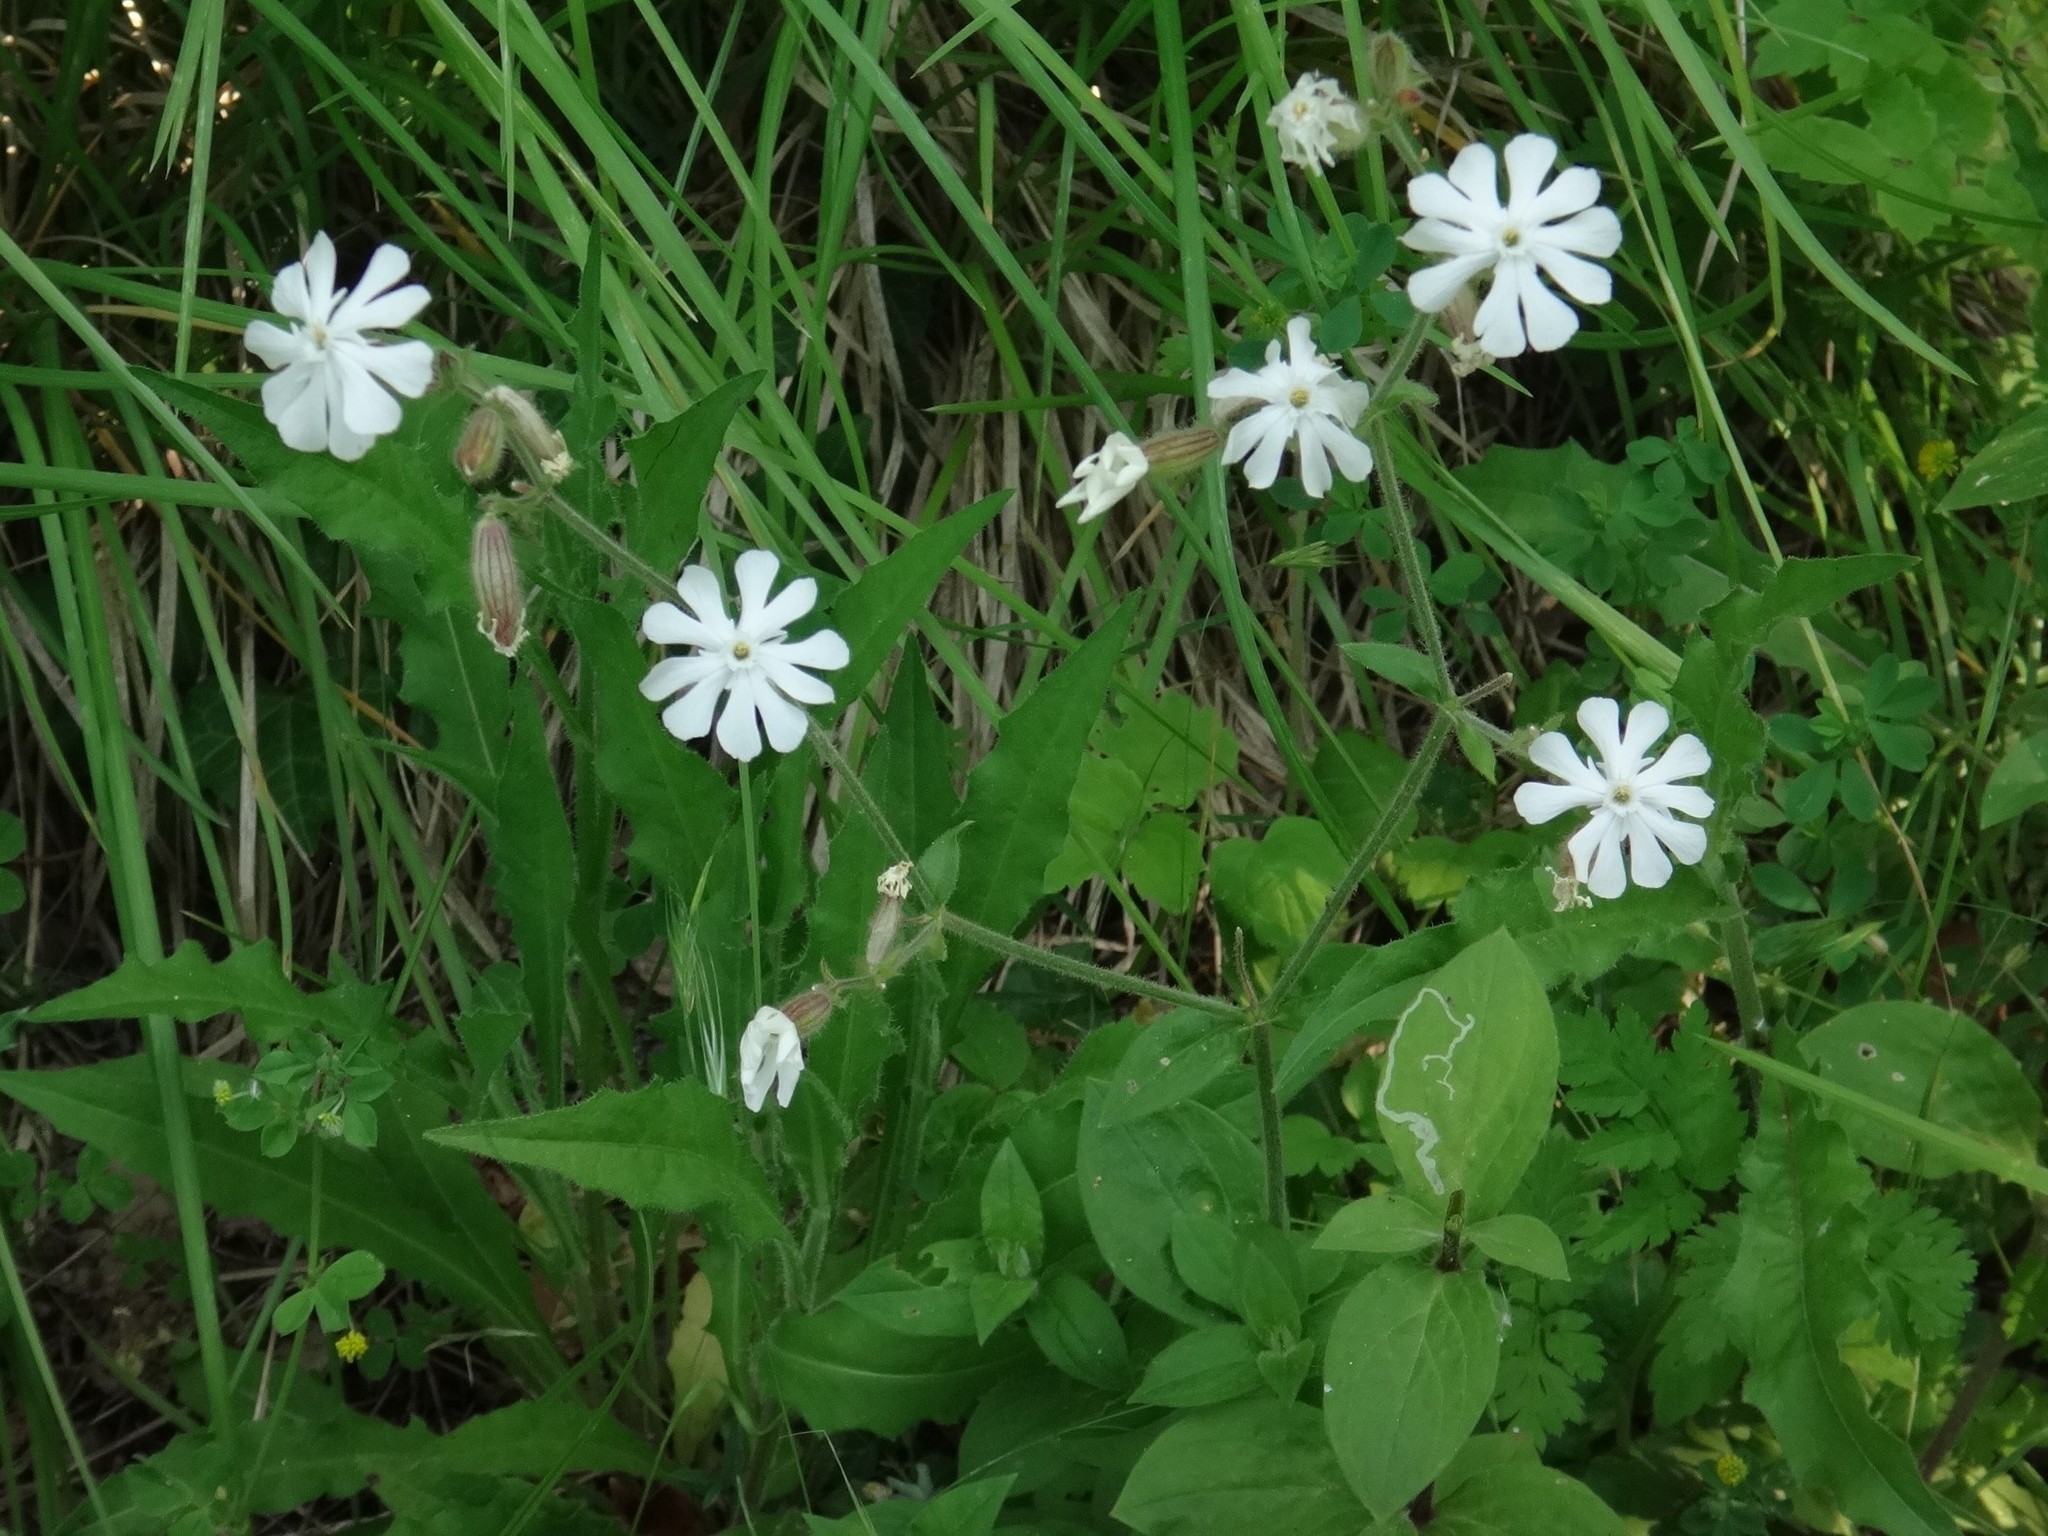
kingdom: Plantae
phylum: Tracheophyta
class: Magnoliopsida
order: Caryophyllales
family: Caryophyllaceae
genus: Silene
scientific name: Silene latifolia
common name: White campion
